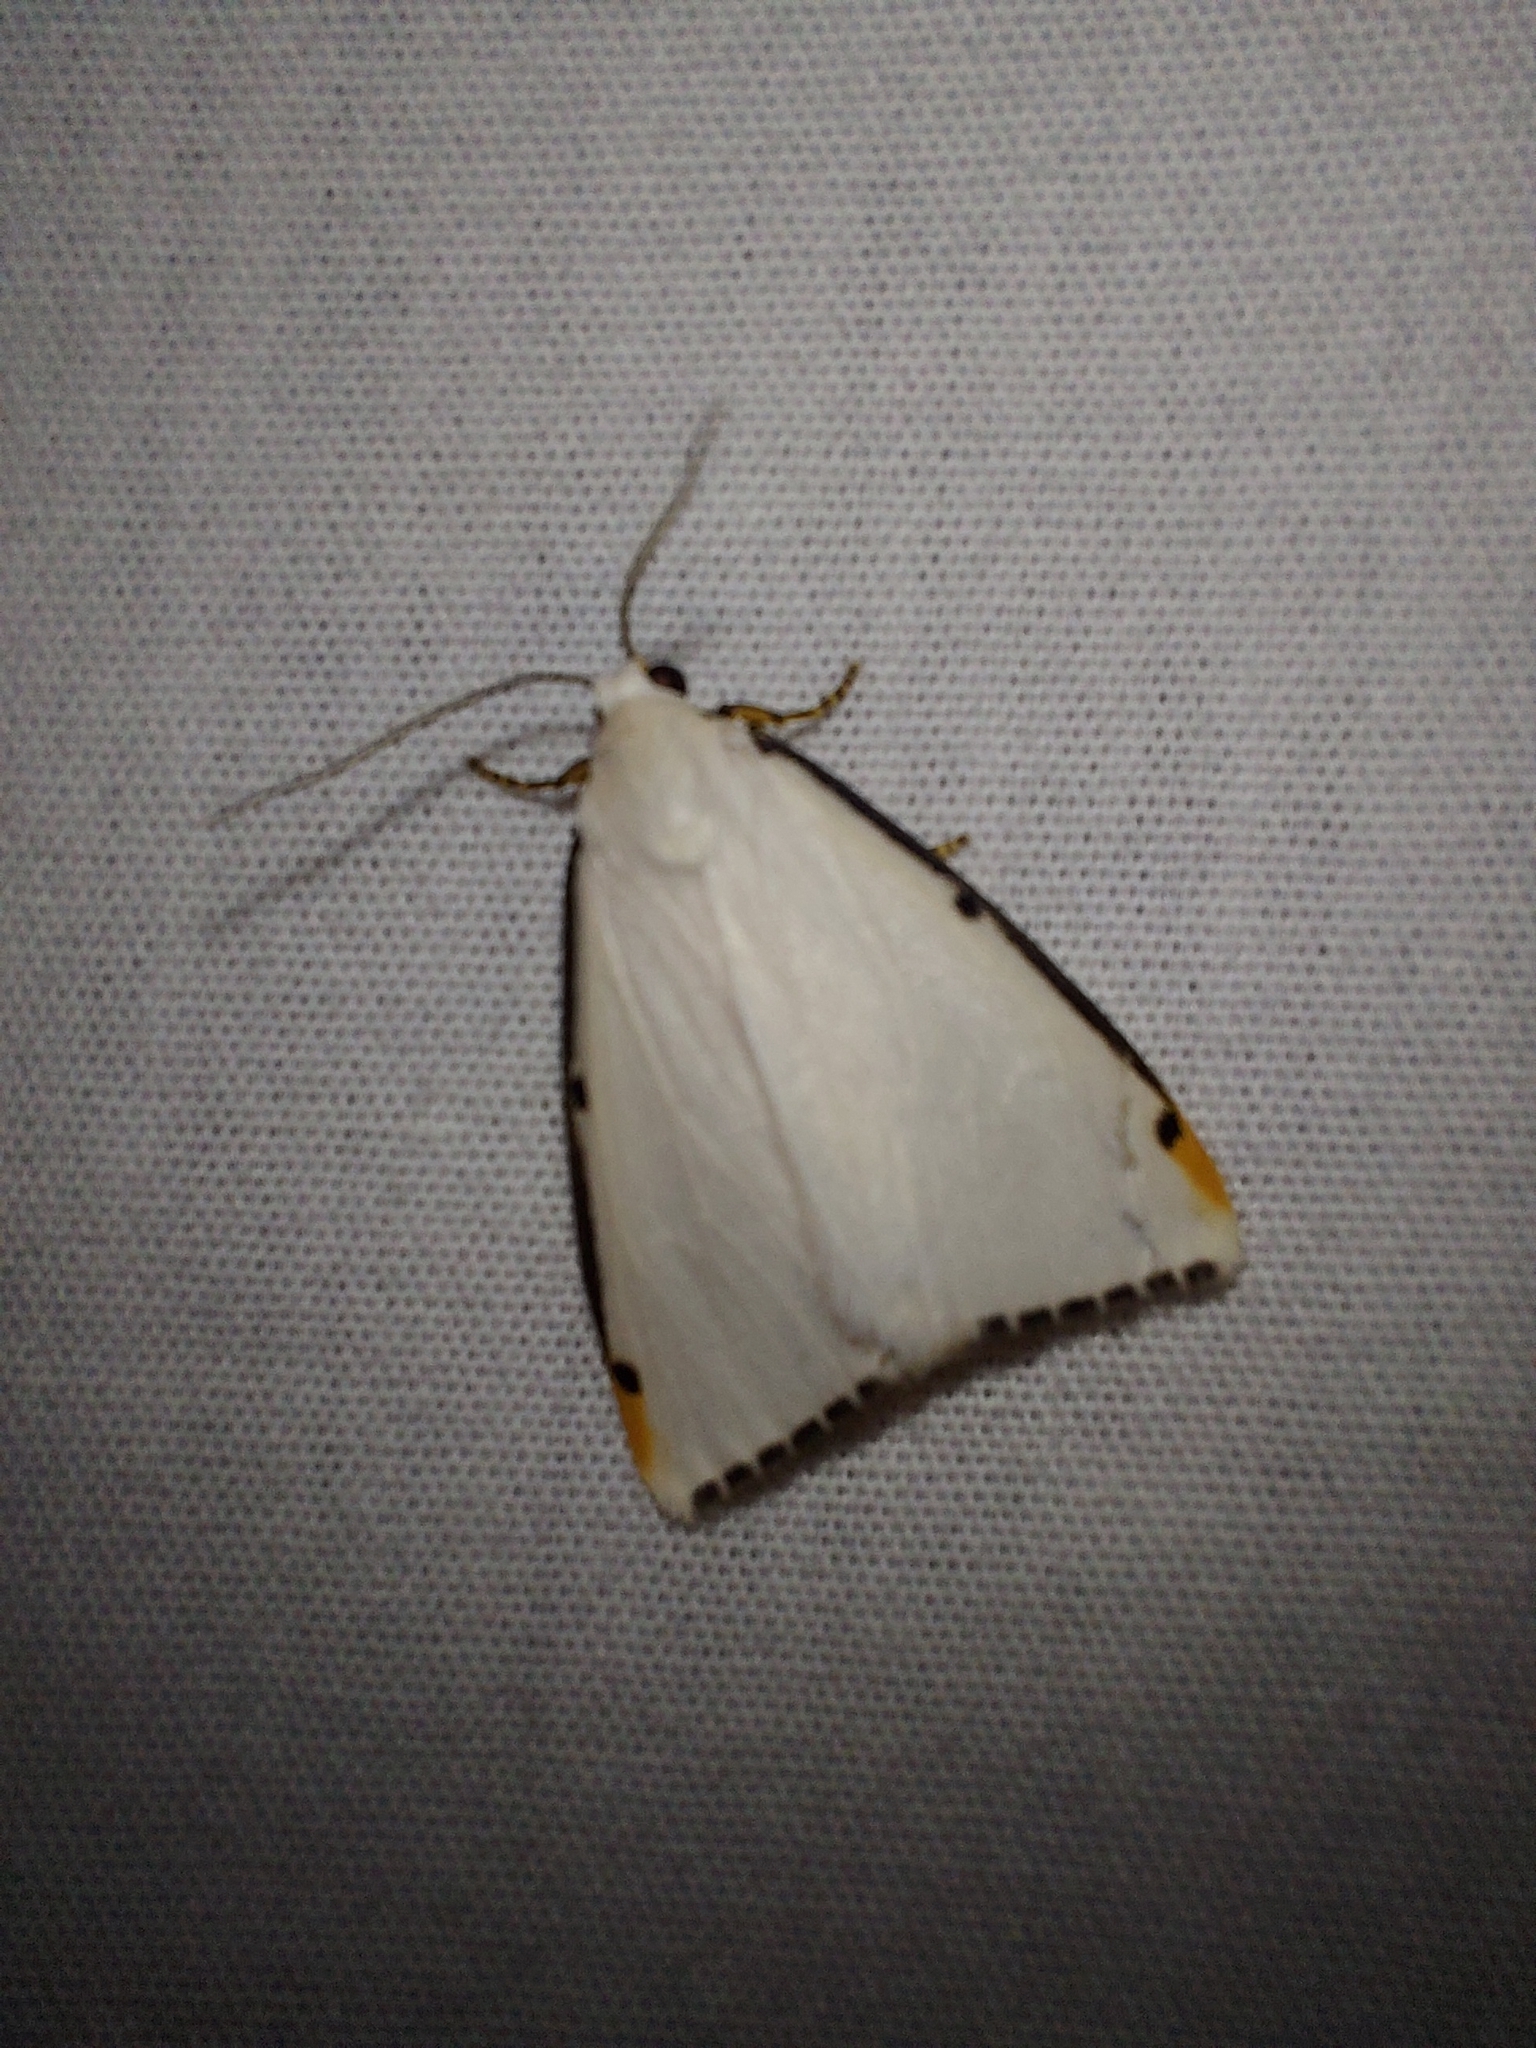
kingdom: Animalia
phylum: Arthropoda
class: Insecta
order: Lepidoptera
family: Erebidae
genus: Termessa
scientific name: Termessa nivosa
